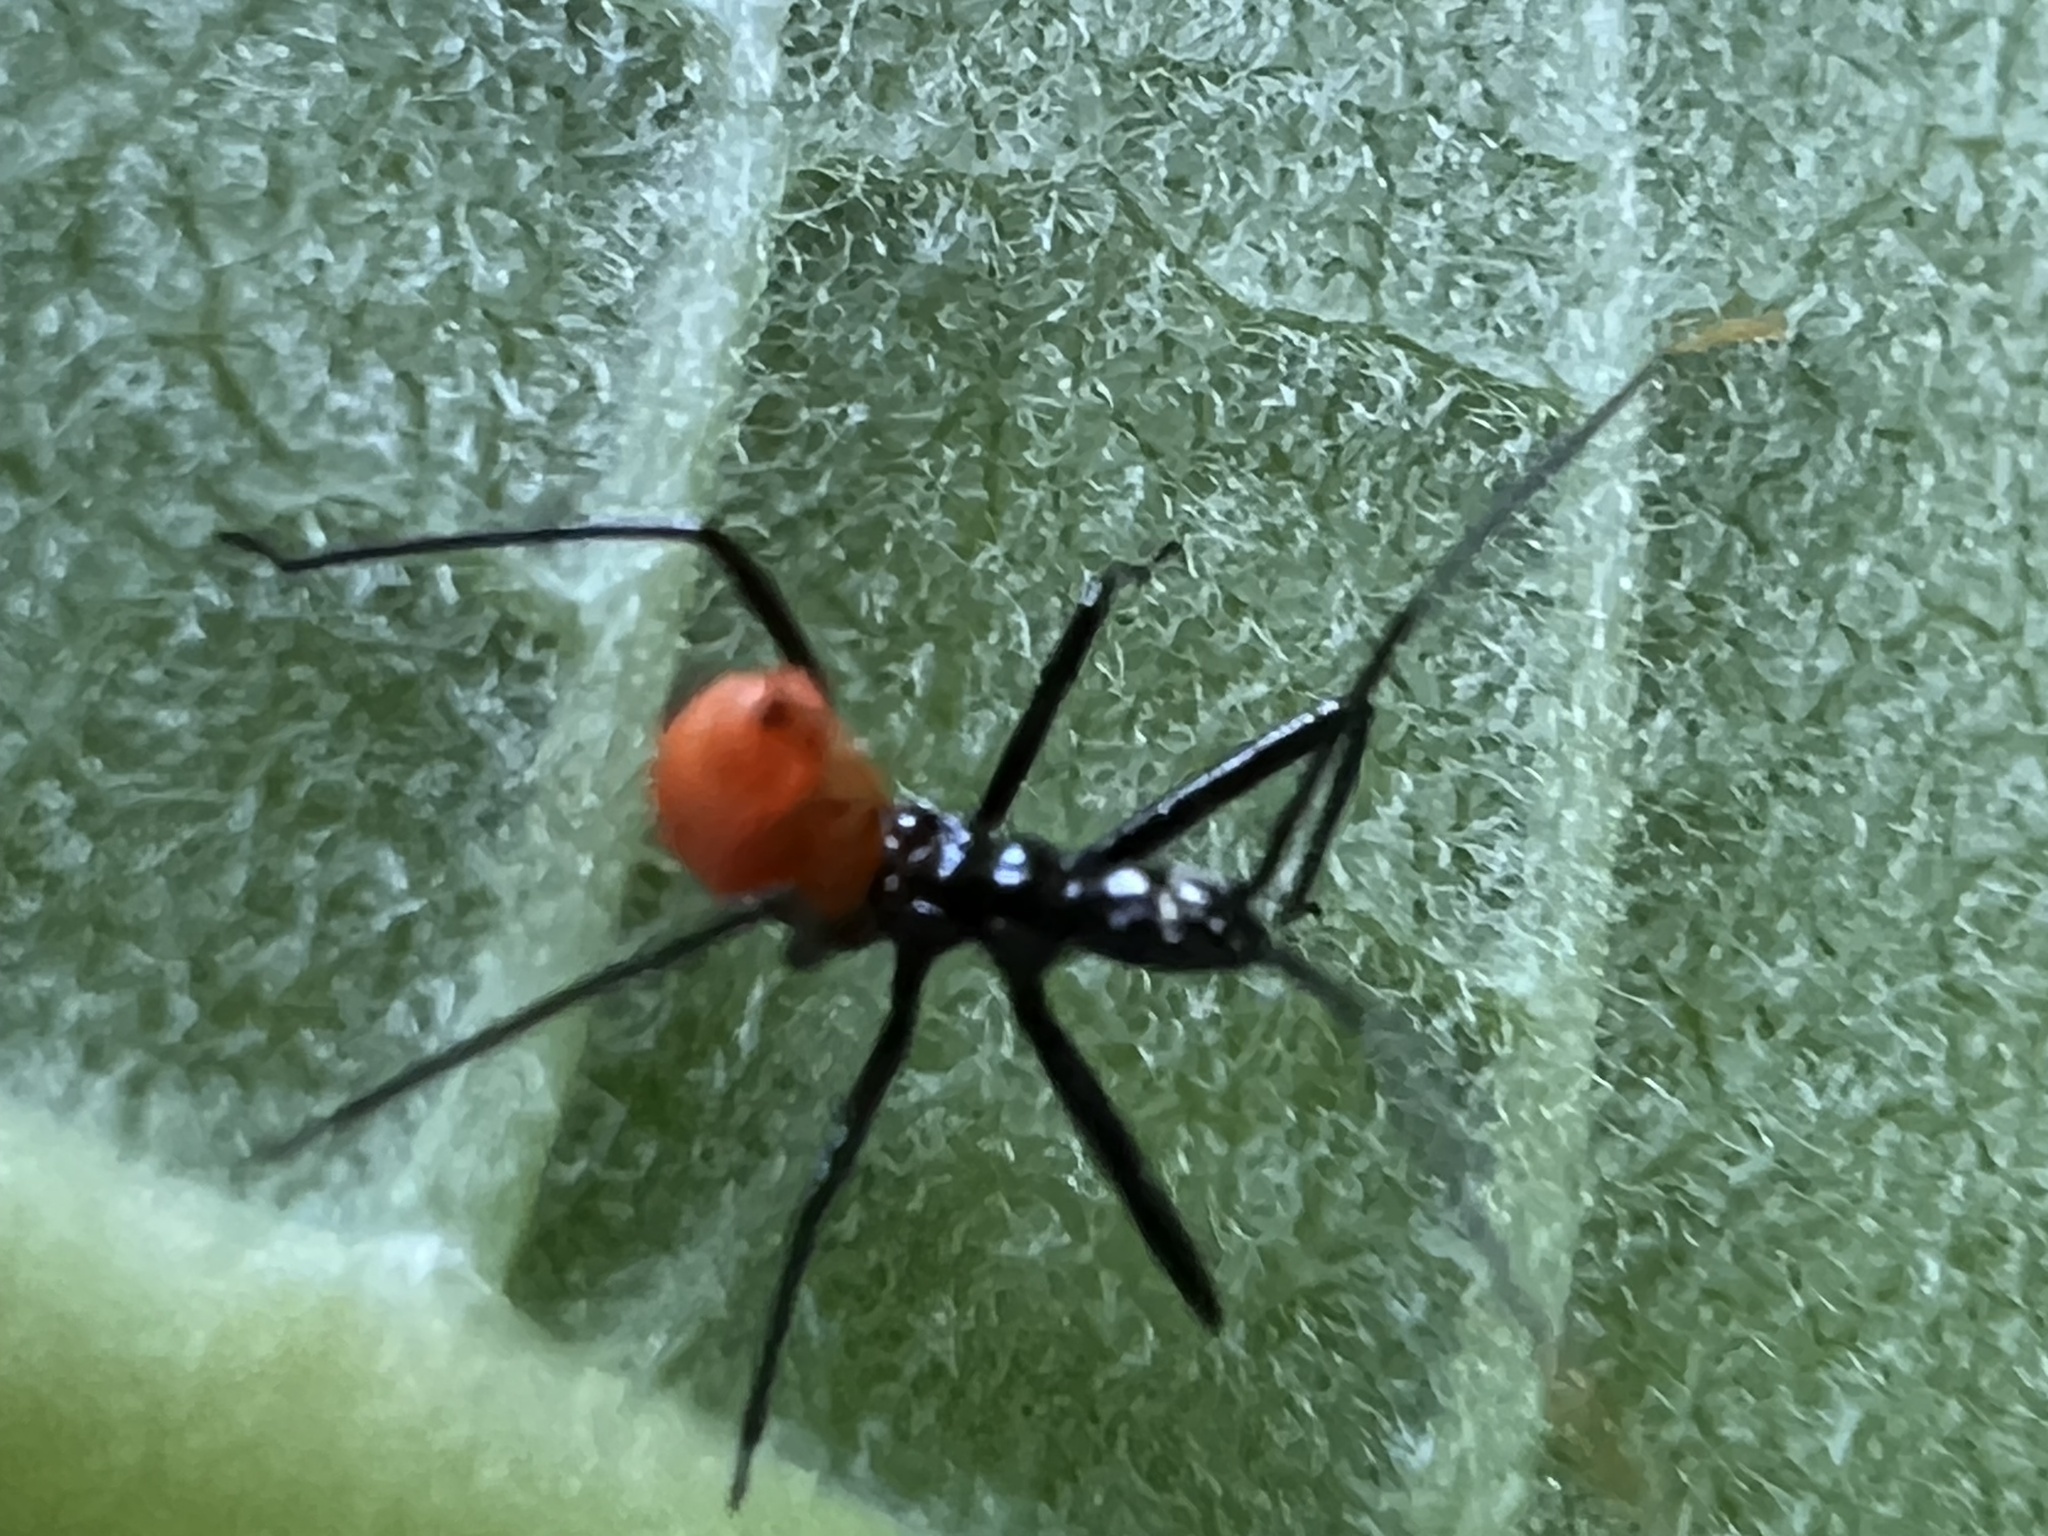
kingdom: Animalia
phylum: Arthropoda
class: Insecta
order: Hemiptera
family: Reduviidae
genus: Arilus
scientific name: Arilus cristatus
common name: North american wheel bug
